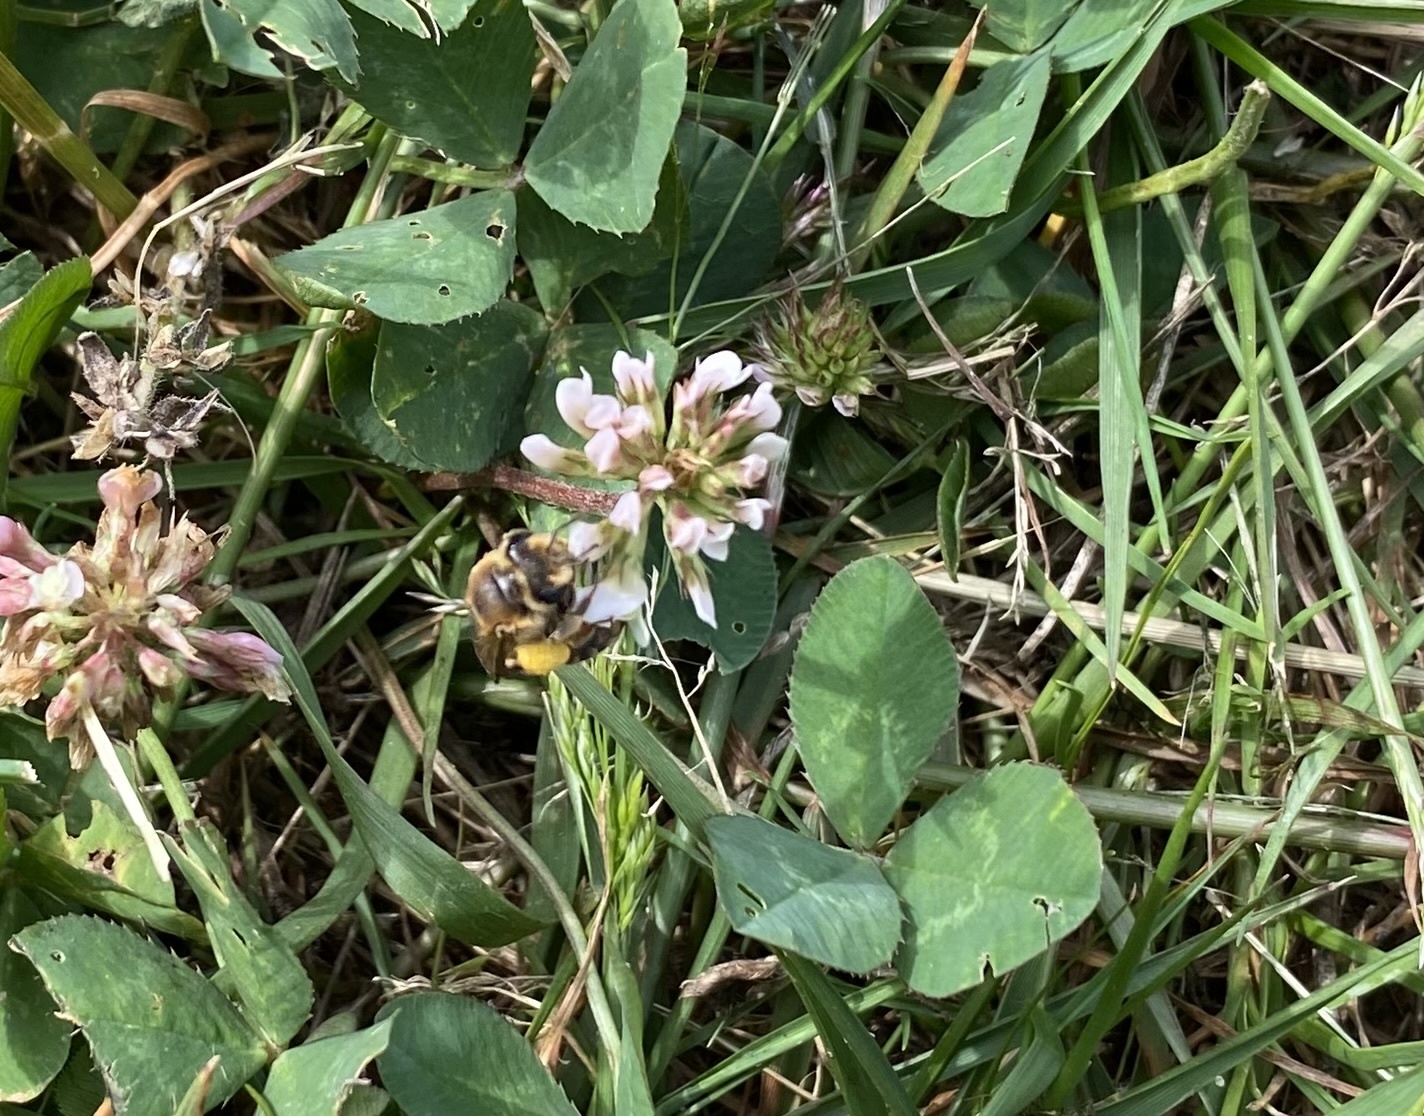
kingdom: Animalia
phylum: Arthropoda
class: Insecta
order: Hymenoptera
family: Andrenidae
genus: Andrena
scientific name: Andrena wilkella
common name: Wilke's mining bee
